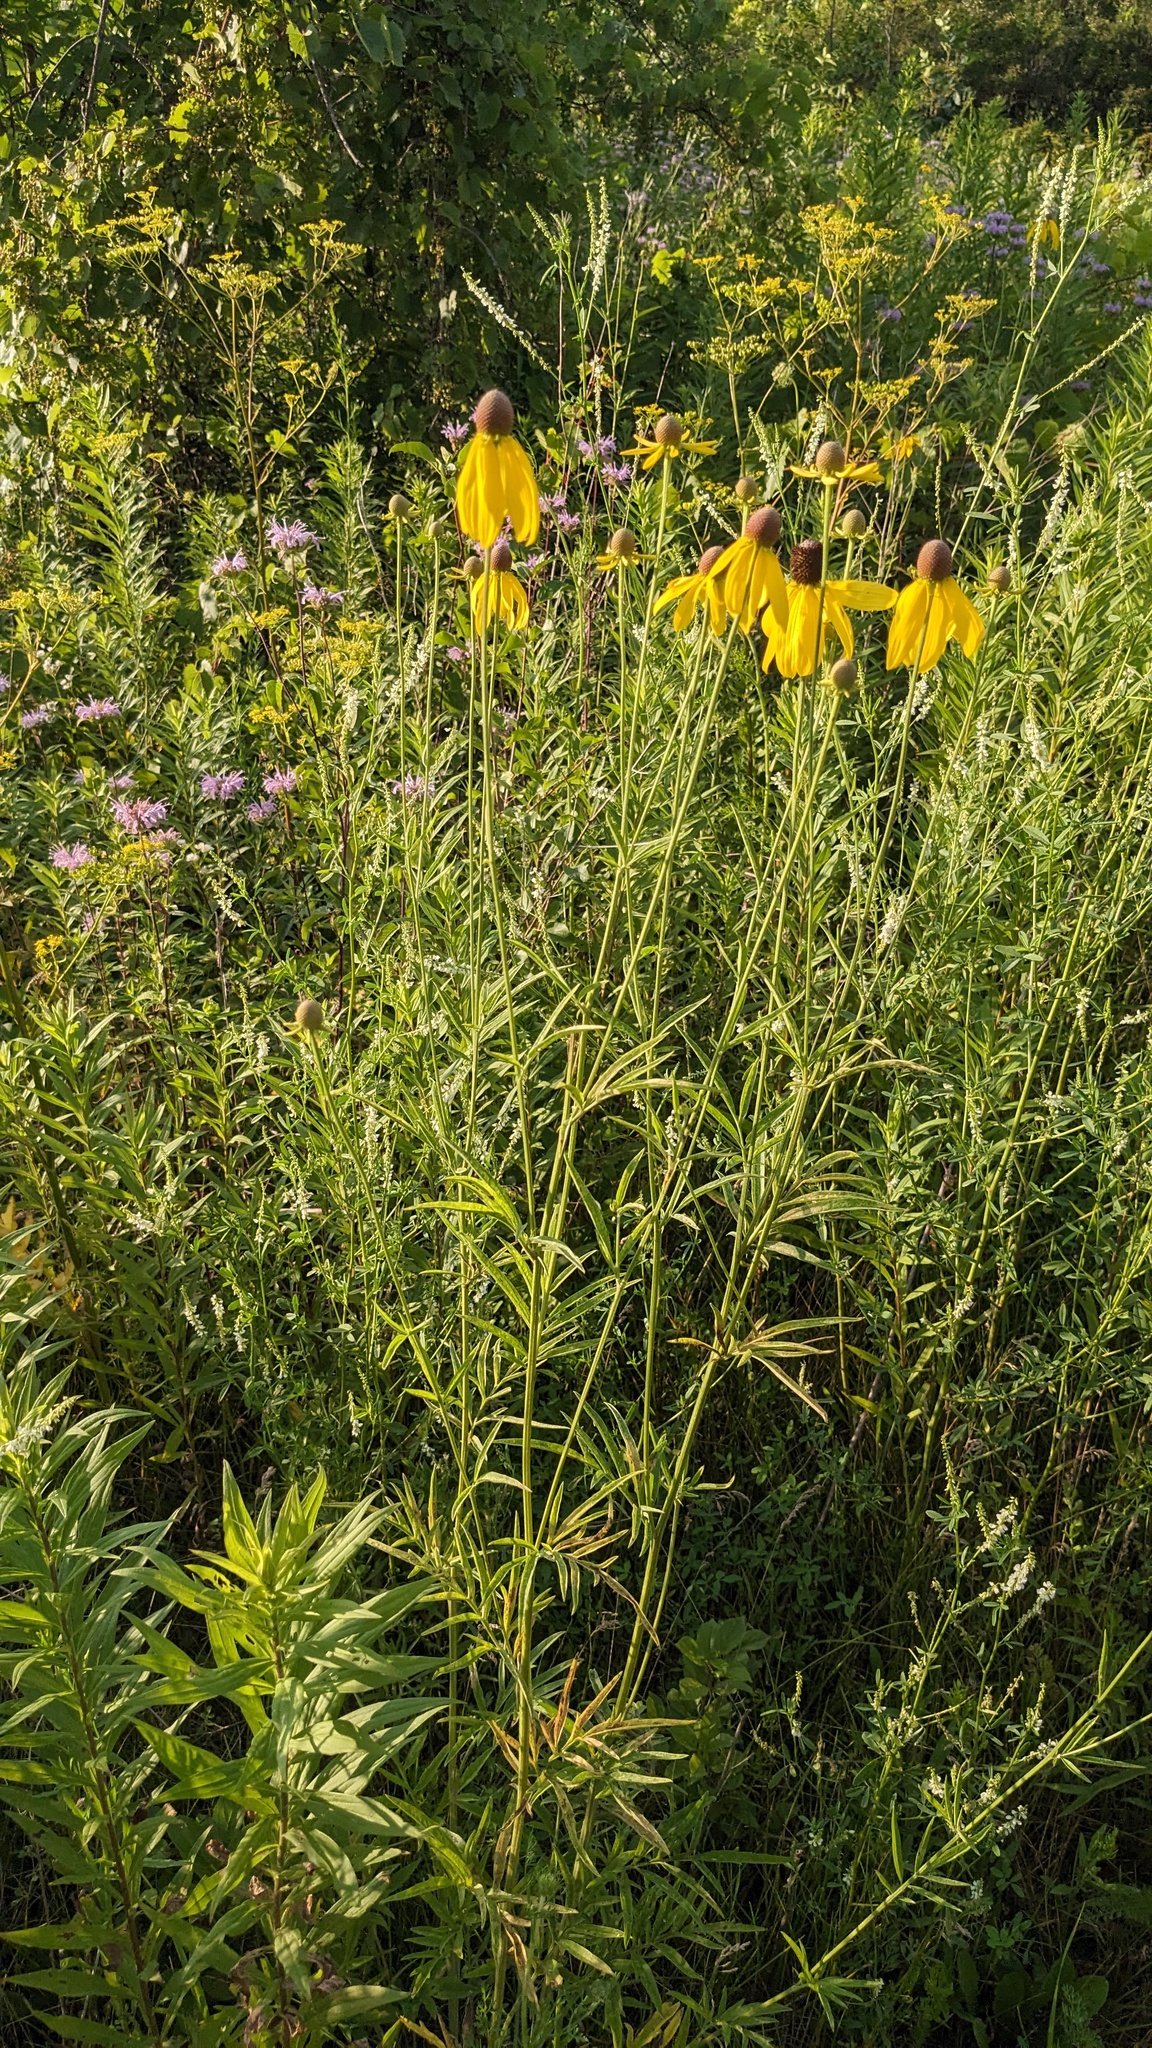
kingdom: Plantae
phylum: Tracheophyta
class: Magnoliopsida
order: Asterales
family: Asteraceae
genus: Ratibida
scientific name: Ratibida pinnata
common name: Drooping prairie-coneflower
